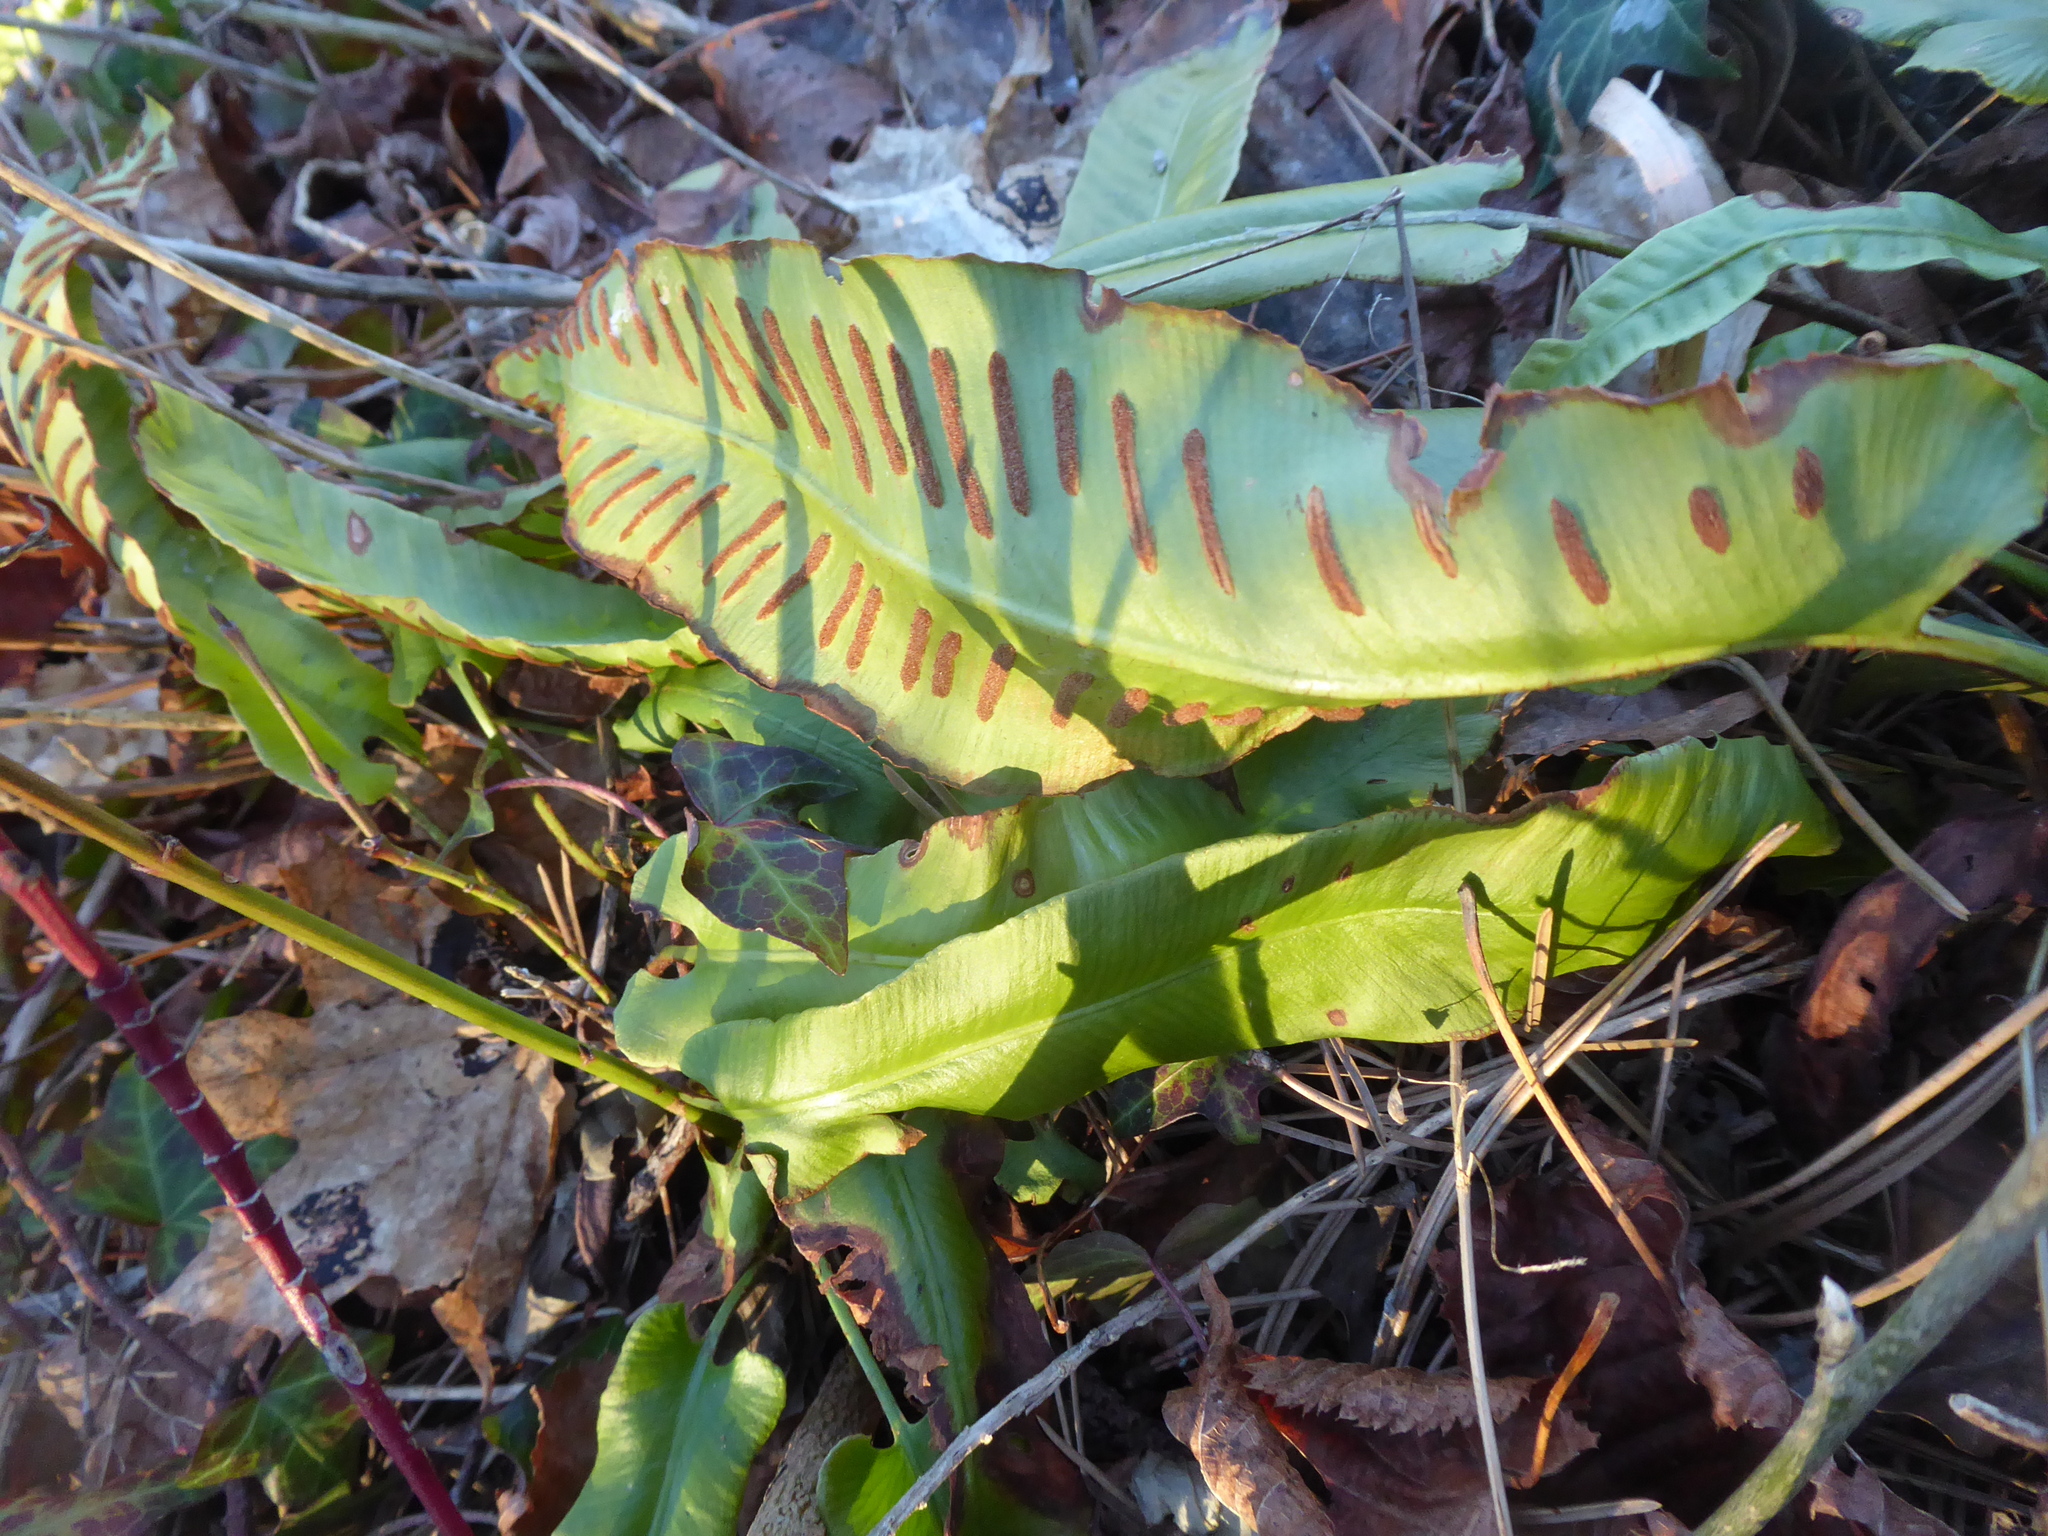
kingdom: Plantae
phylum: Tracheophyta
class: Polypodiopsida
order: Polypodiales
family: Aspleniaceae
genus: Asplenium
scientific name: Asplenium scolopendrium
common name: Hart's-tongue fern
